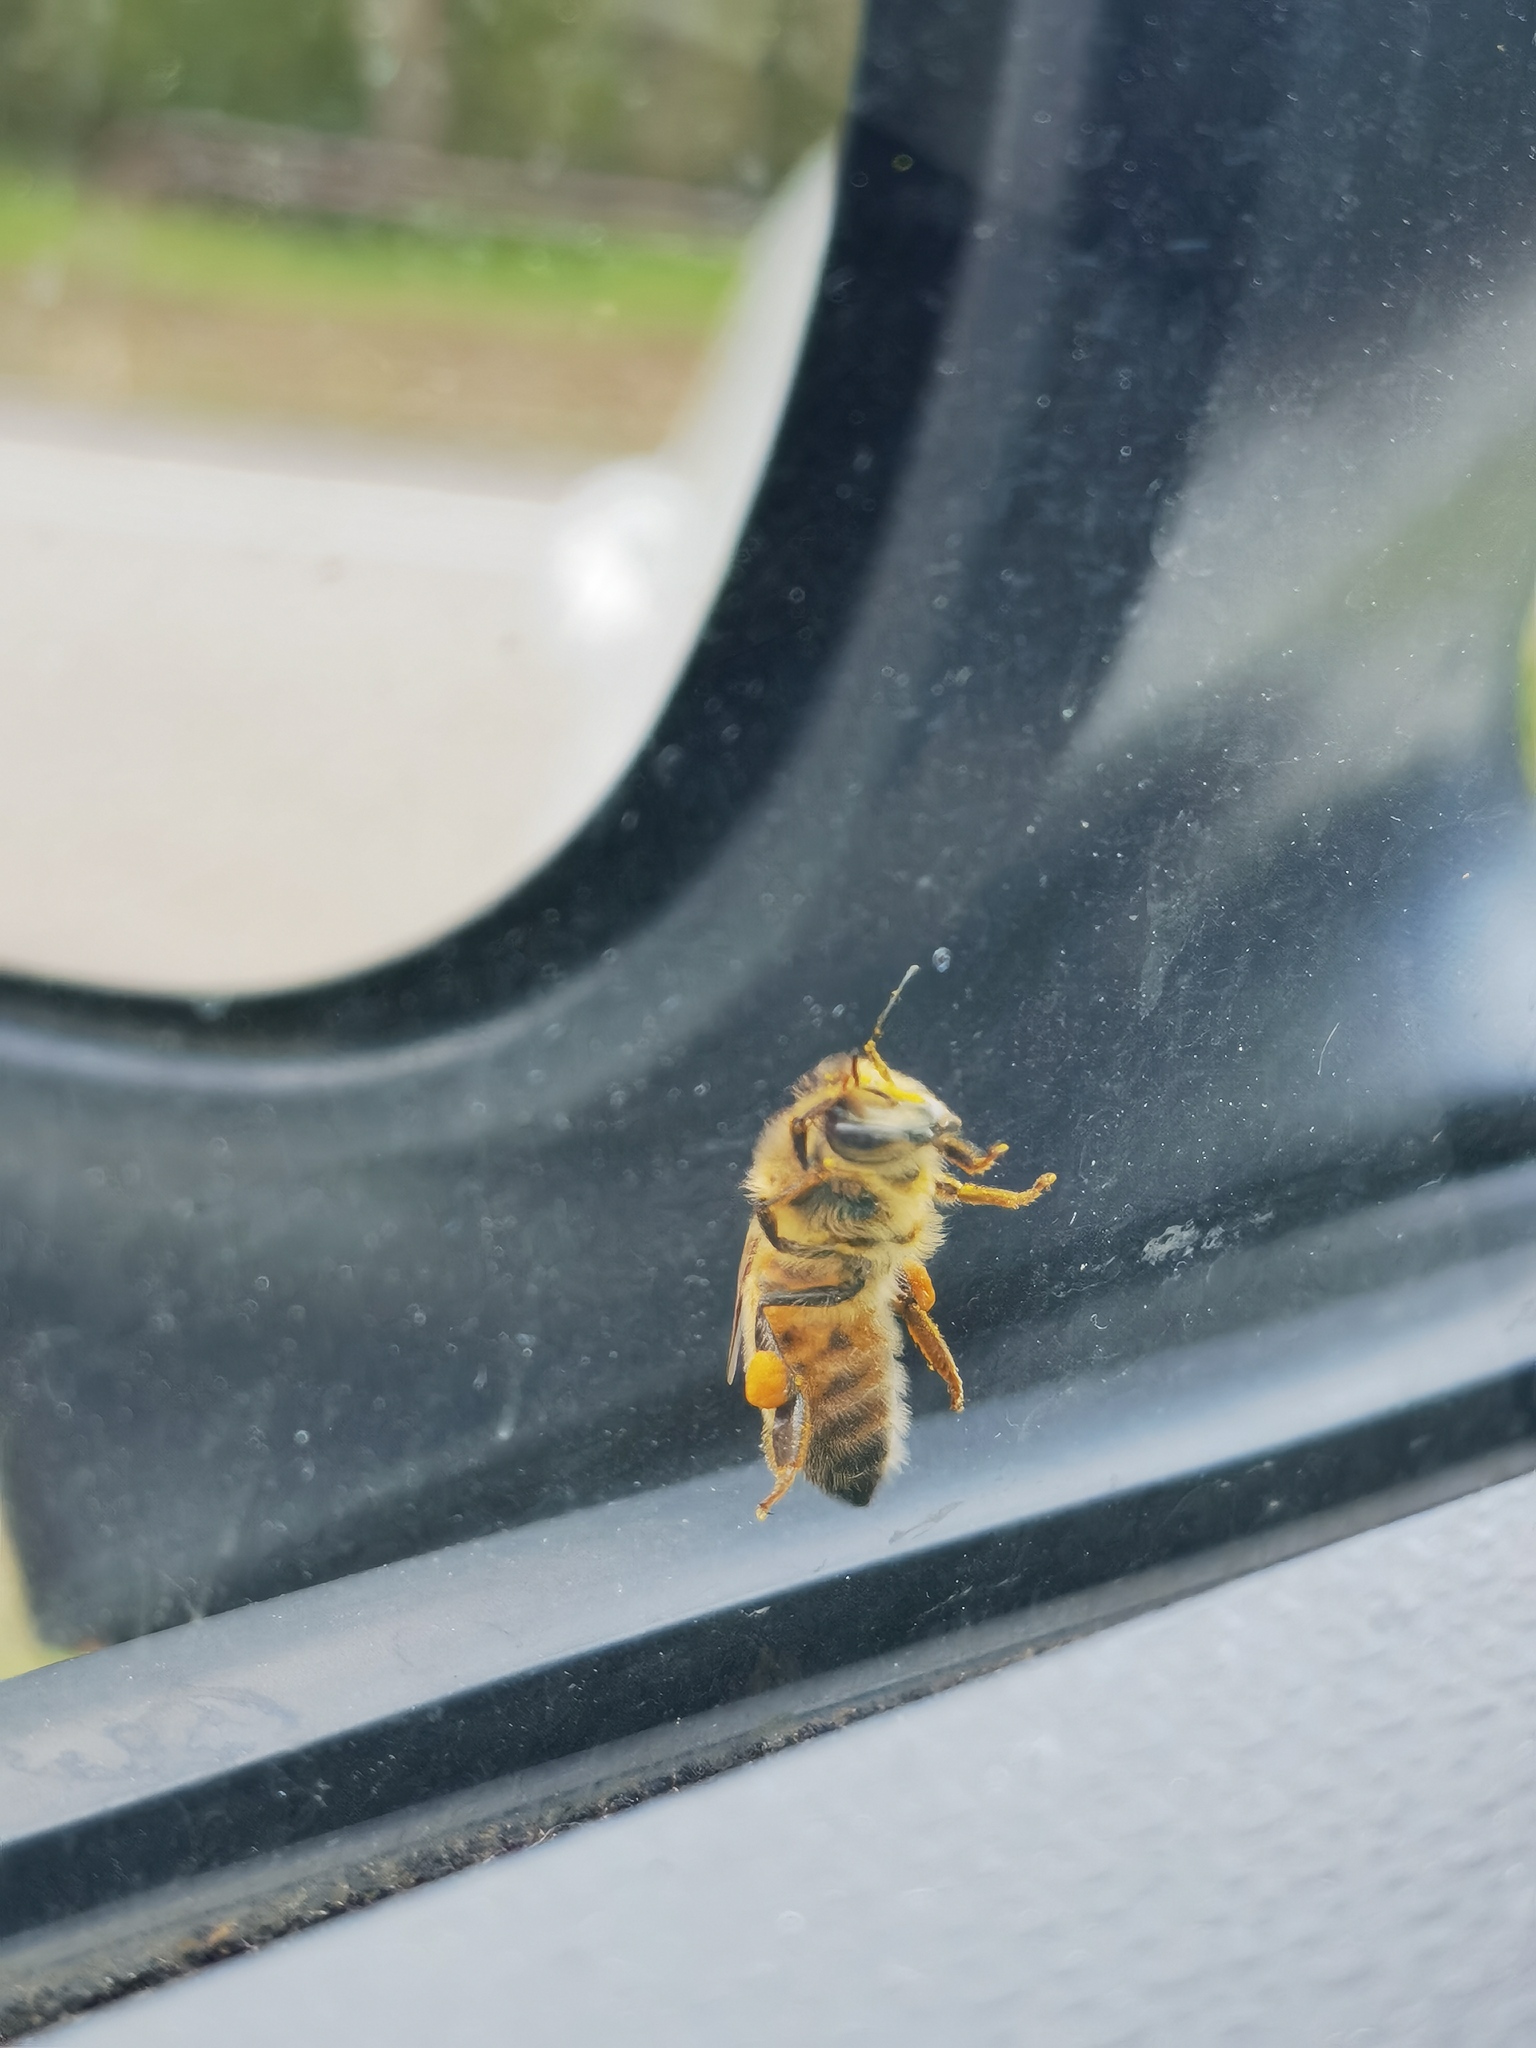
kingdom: Animalia
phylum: Arthropoda
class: Insecta
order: Hymenoptera
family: Apidae
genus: Apis
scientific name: Apis mellifera
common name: Honey bee
